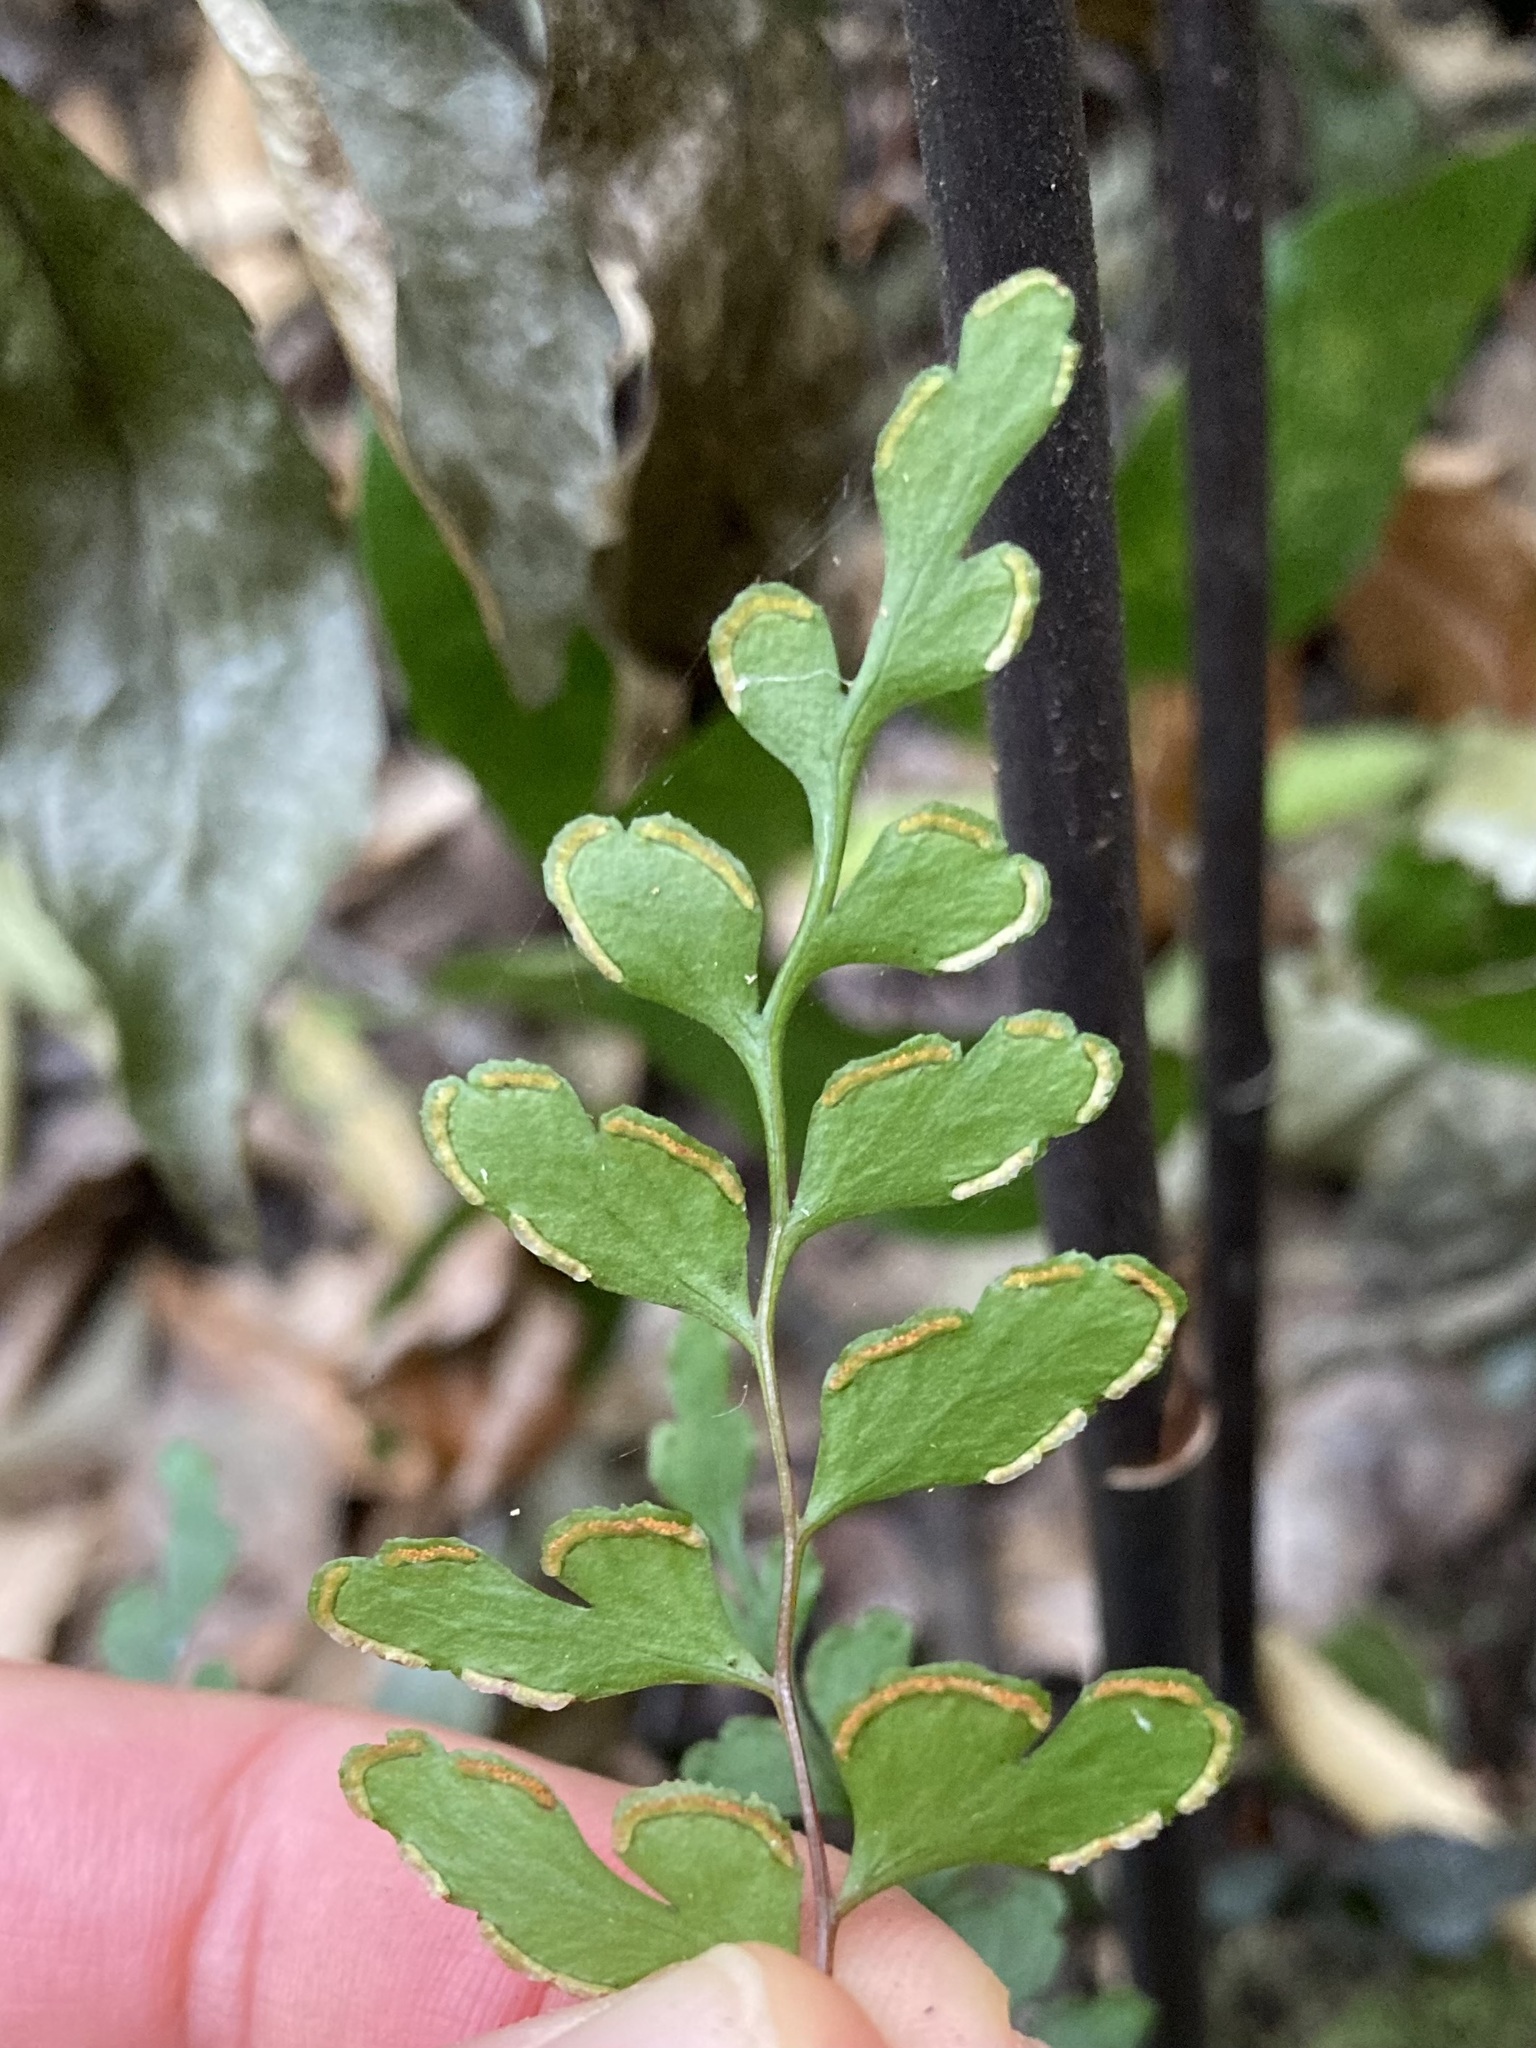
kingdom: Plantae
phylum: Tracheophyta
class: Polypodiopsida
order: Polypodiales
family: Lindsaeaceae
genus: Lindsaea
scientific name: Lindsaea trichomanoides
